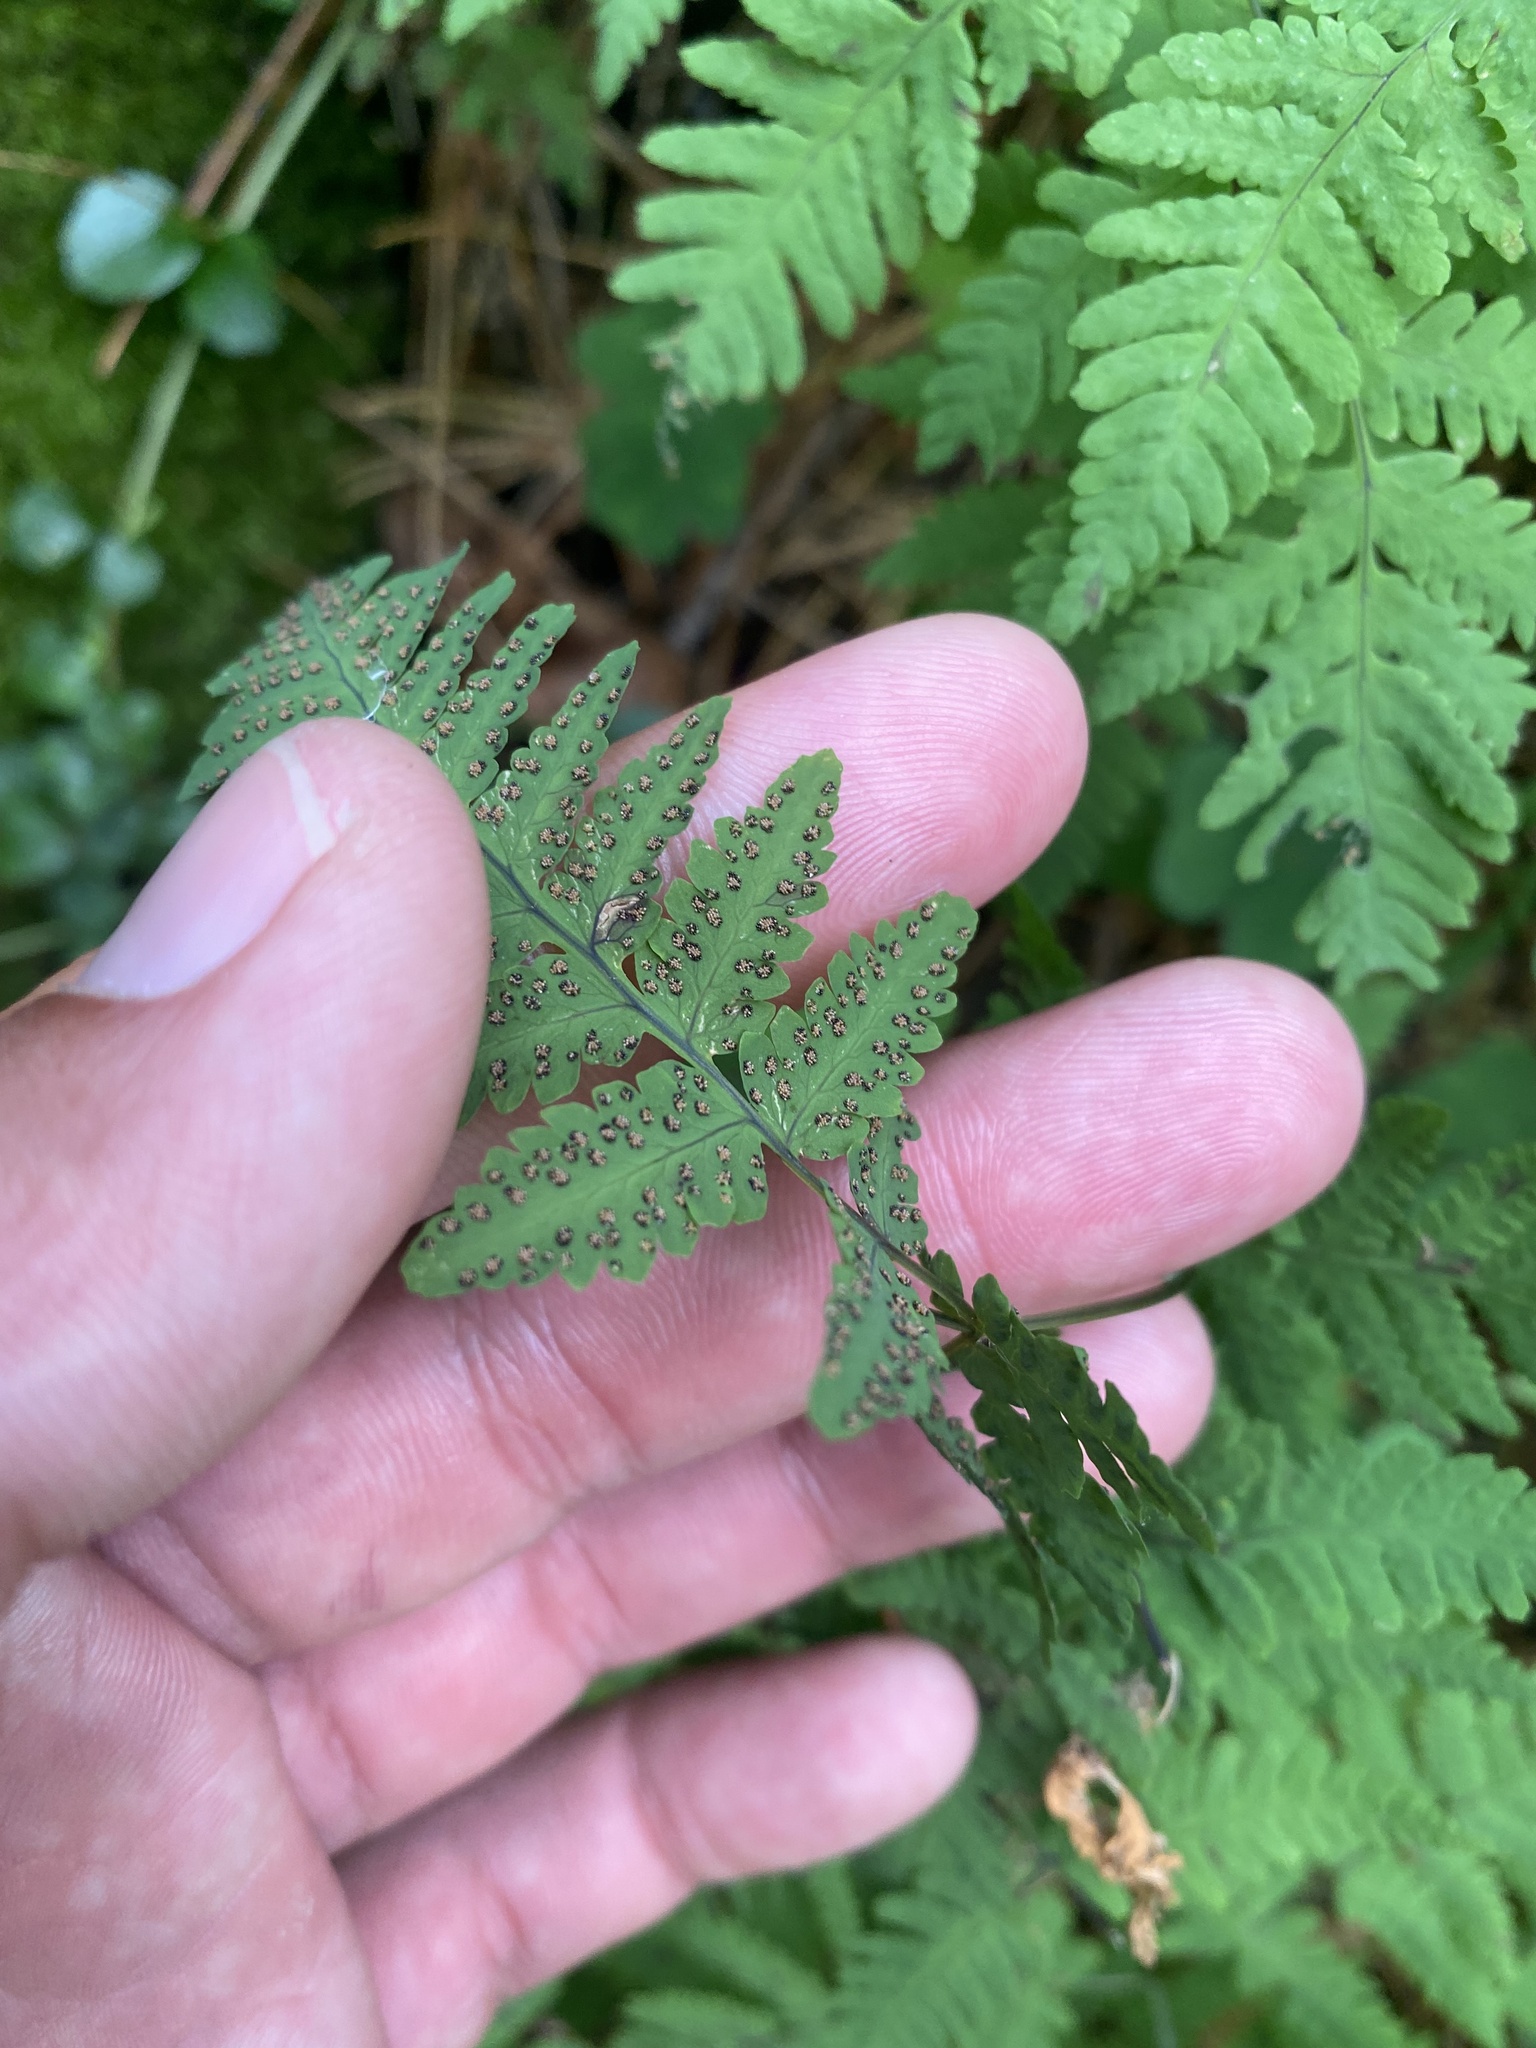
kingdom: Plantae
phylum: Tracheophyta
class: Polypodiopsida
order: Polypodiales
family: Cystopteridaceae
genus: Gymnocarpium
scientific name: Gymnocarpium dryopteris
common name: Oak fern
